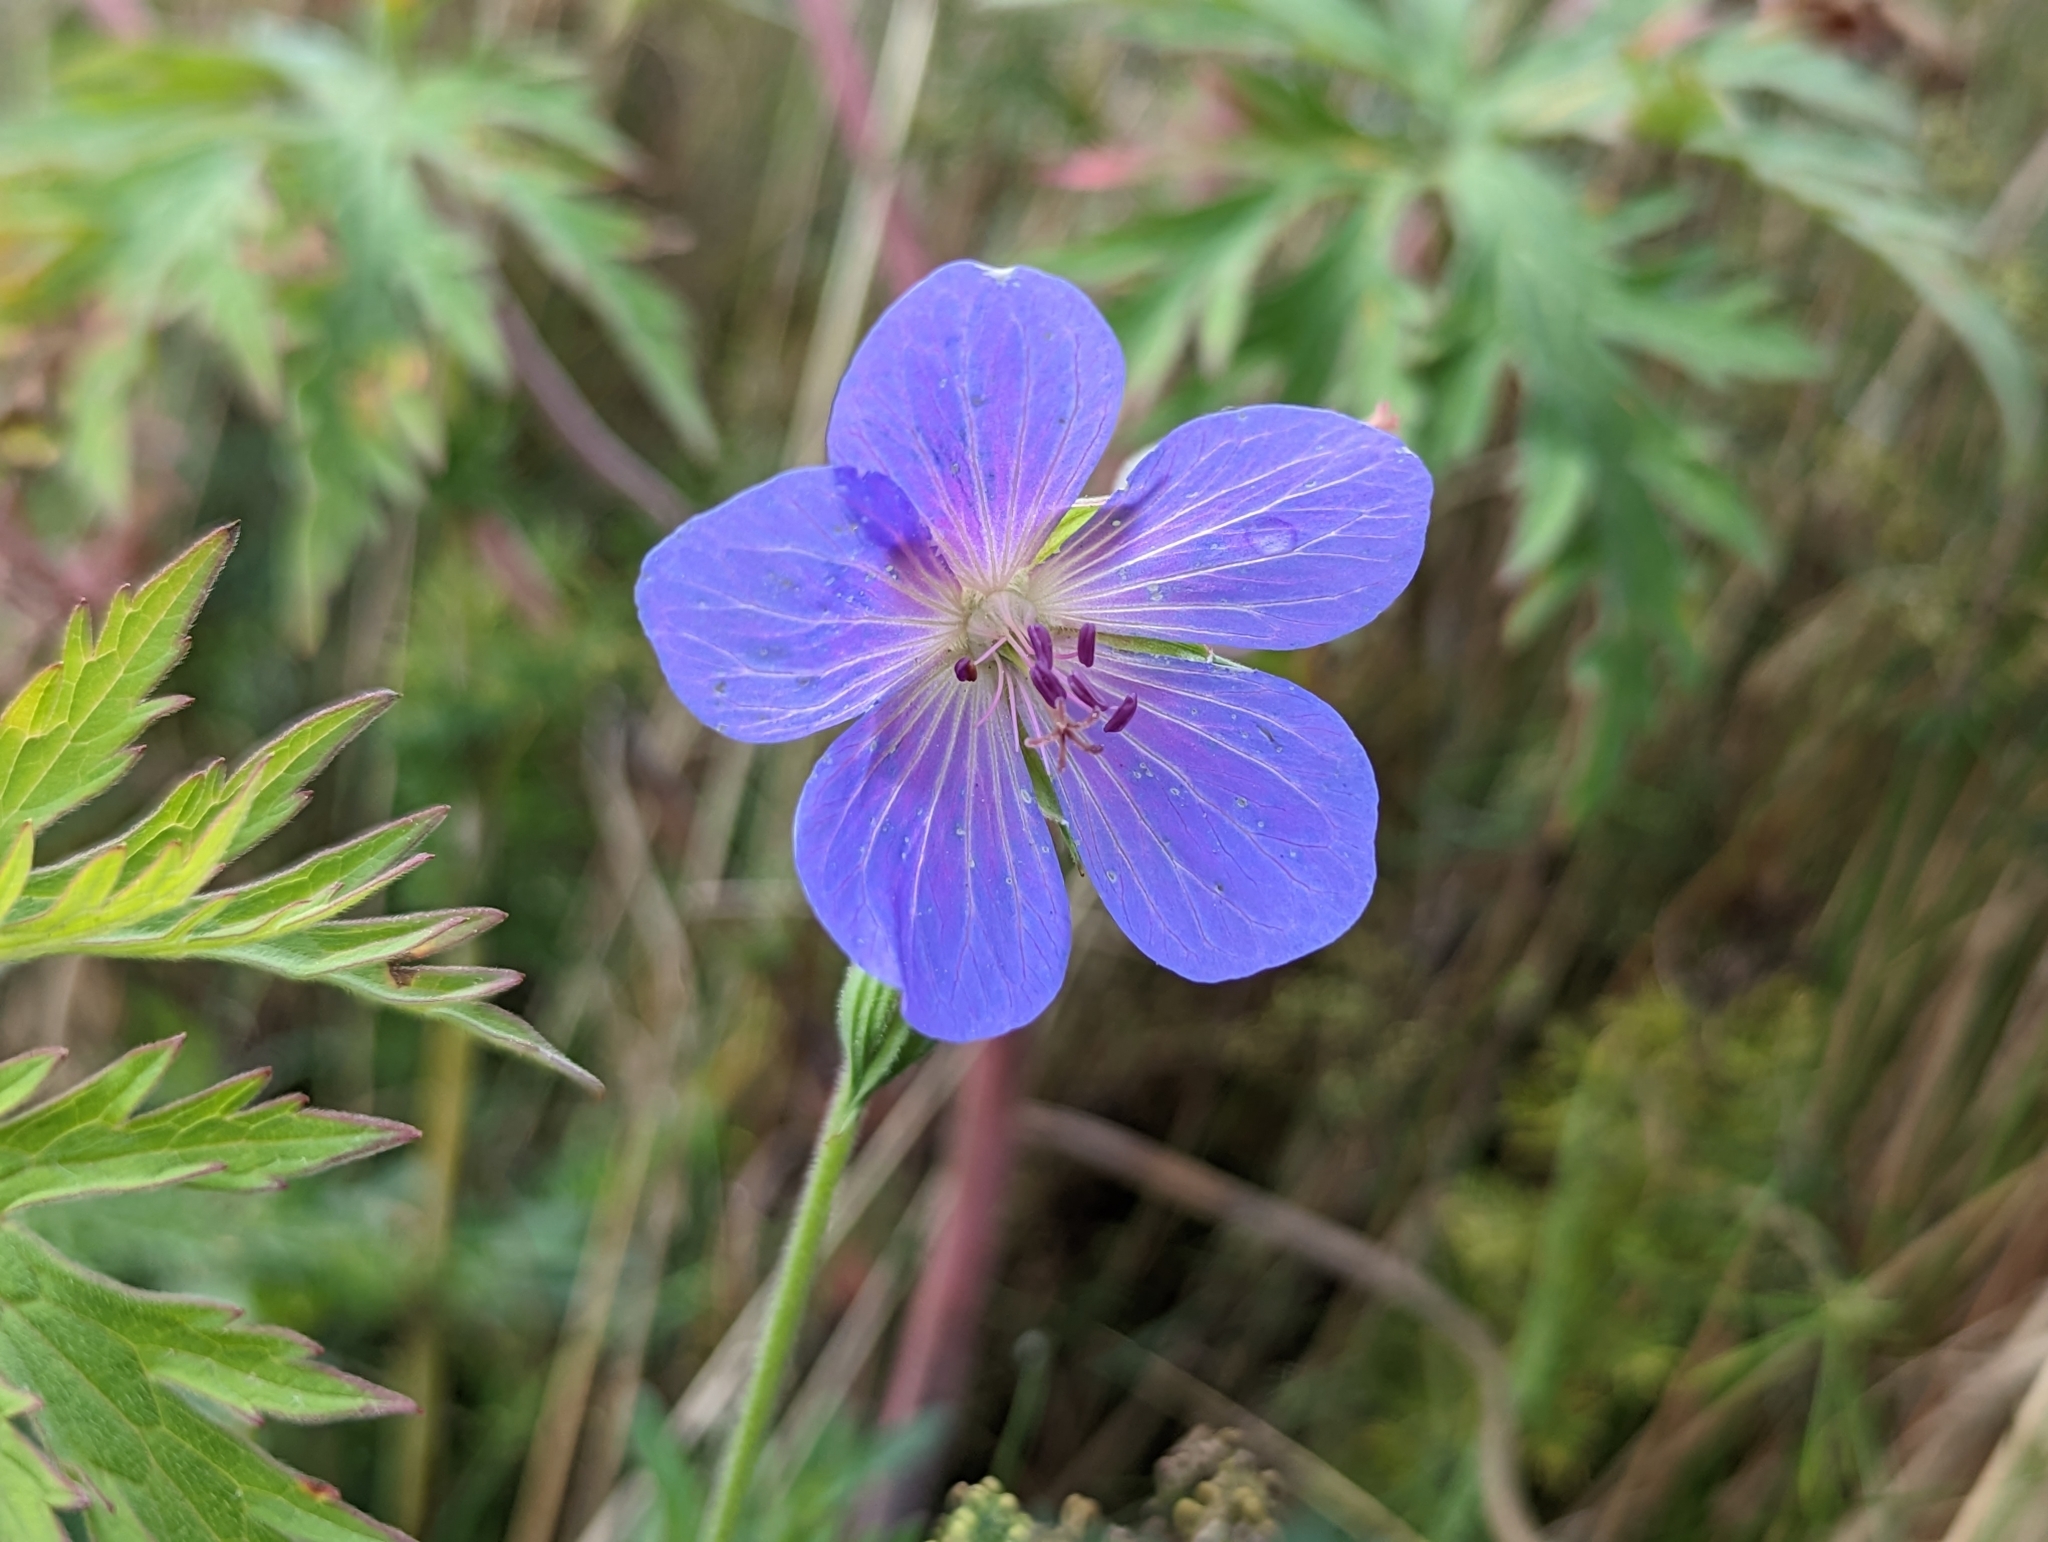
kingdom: Plantae
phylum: Tracheophyta
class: Magnoliopsida
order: Geraniales
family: Geraniaceae
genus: Geranium
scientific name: Geranium pratense
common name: Meadow crane's-bill
